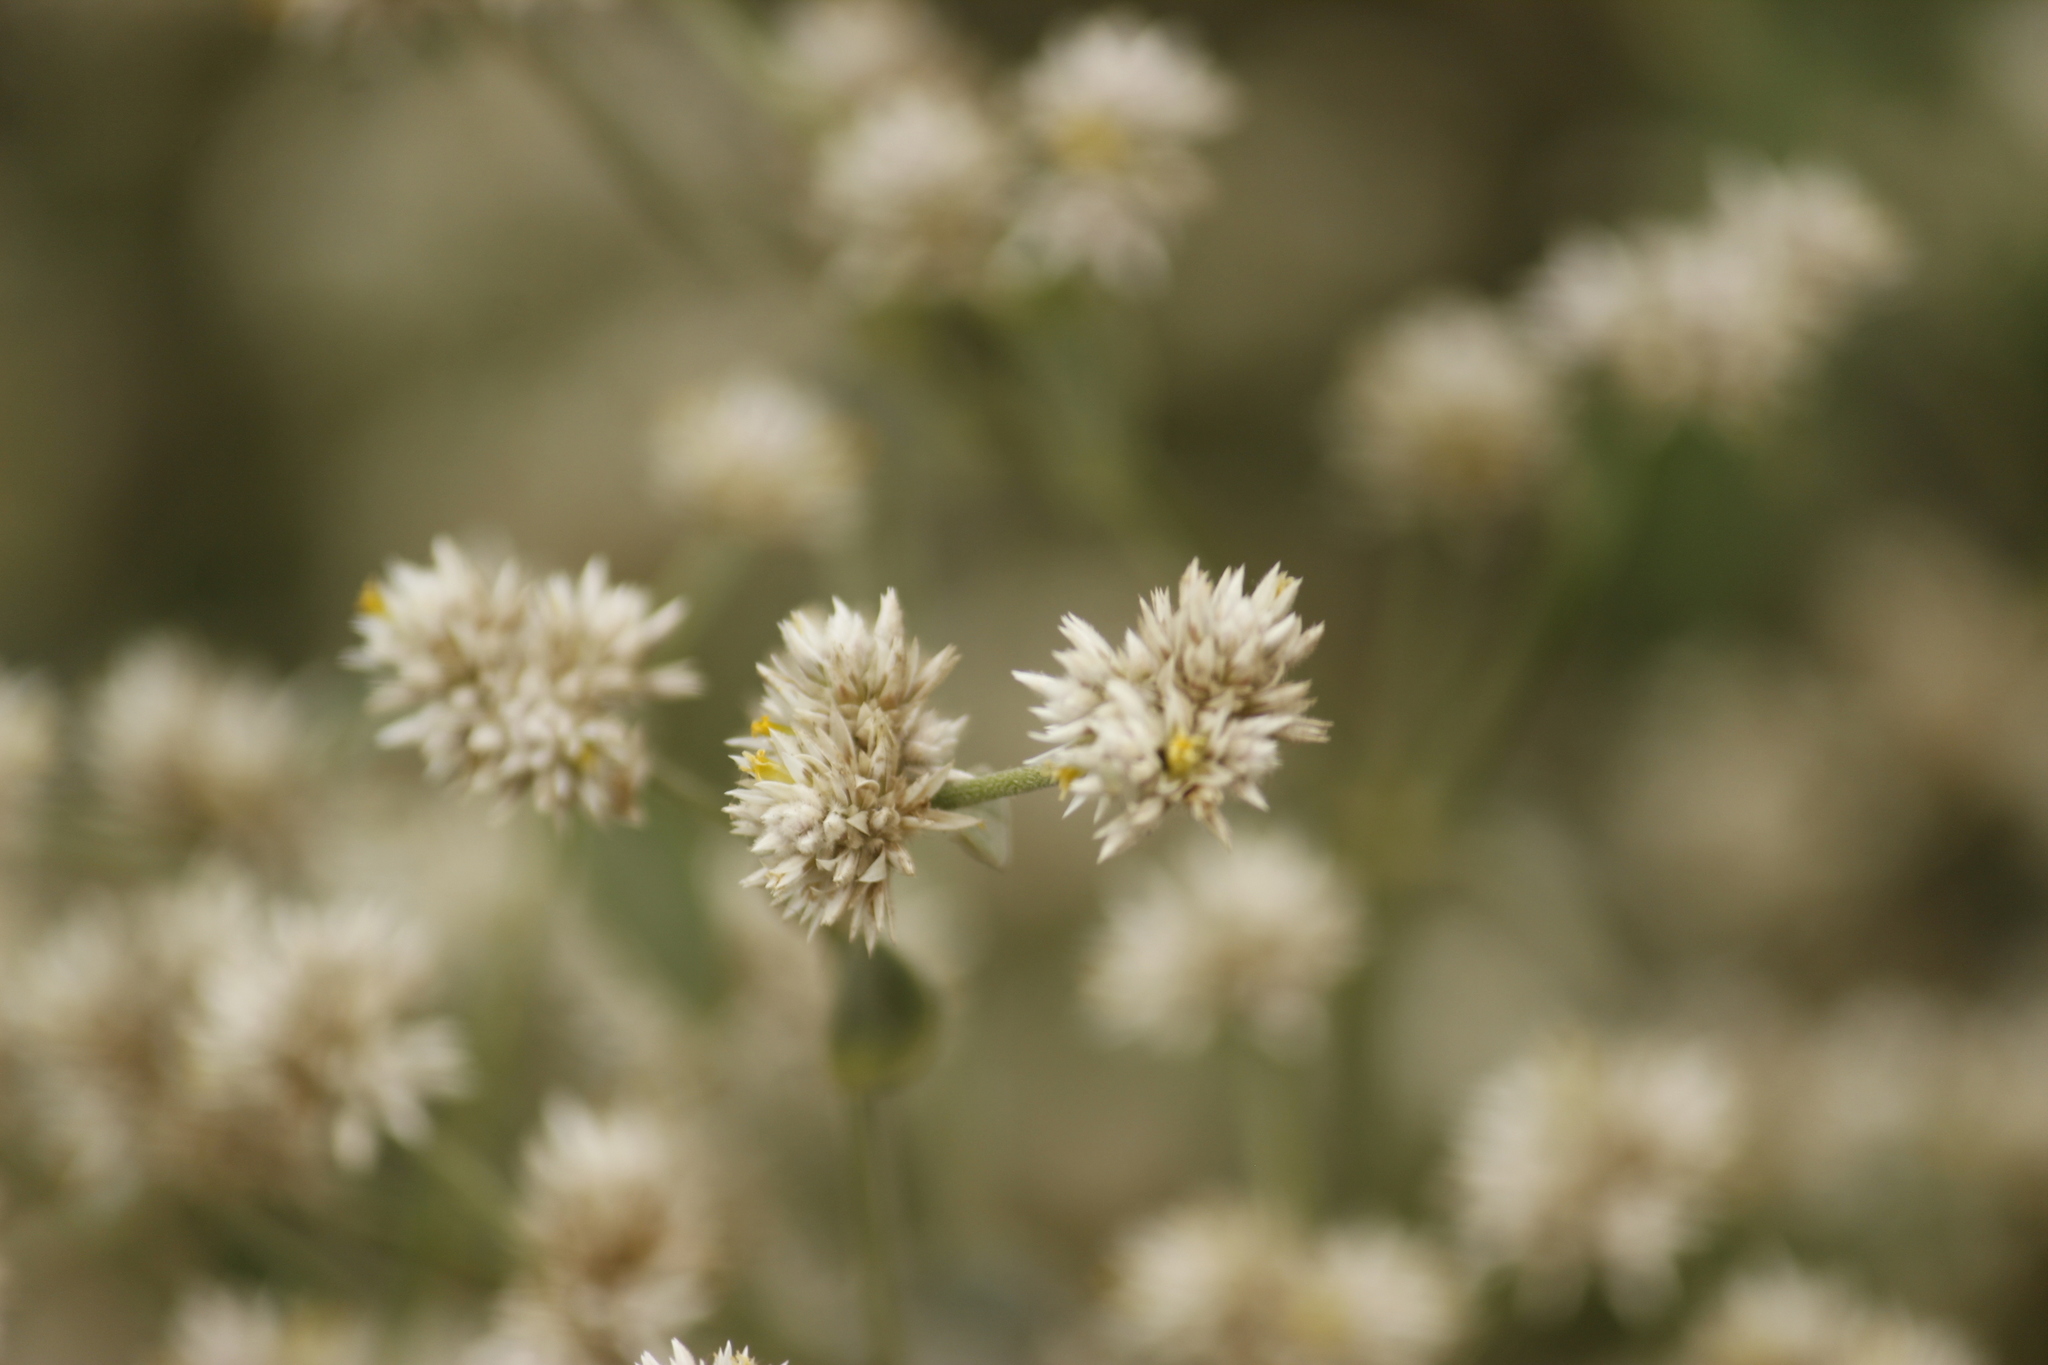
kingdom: Plantae
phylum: Tracheophyta
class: Magnoliopsida
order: Caryophyllales
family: Amaranthaceae
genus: Alternanthera
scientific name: Alternanthera halimifolia
